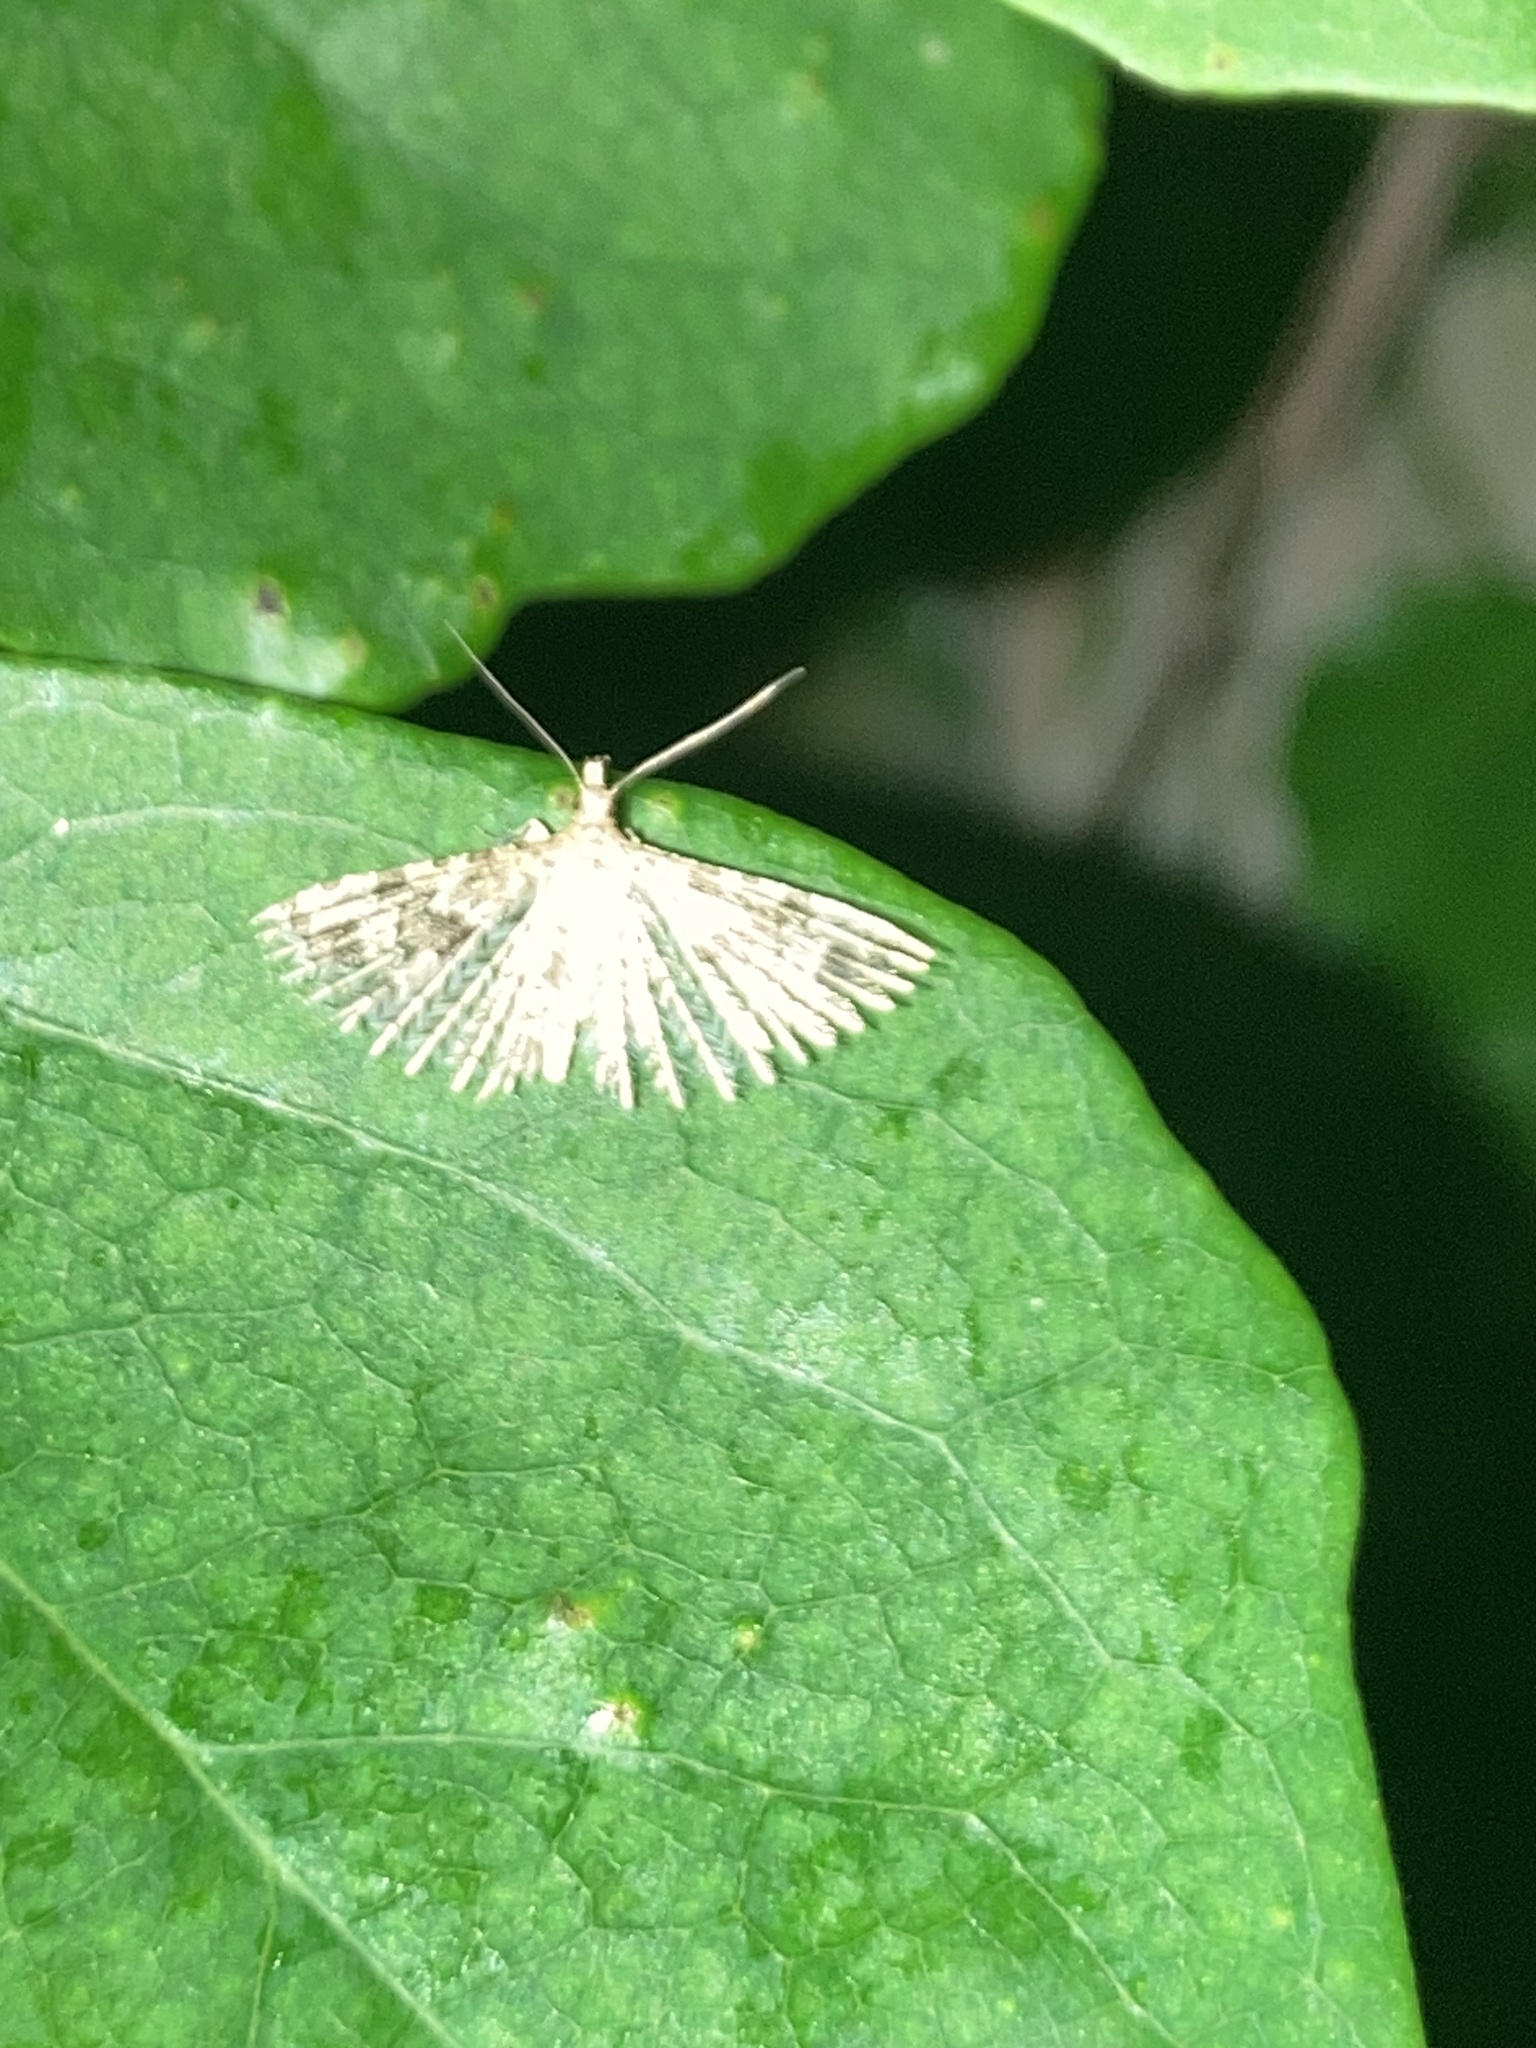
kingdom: Animalia
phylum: Arthropoda
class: Insecta
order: Lepidoptera
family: Alucitidae
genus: Alucita
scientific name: Alucita hexadactyla
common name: Twenty-plume moth
